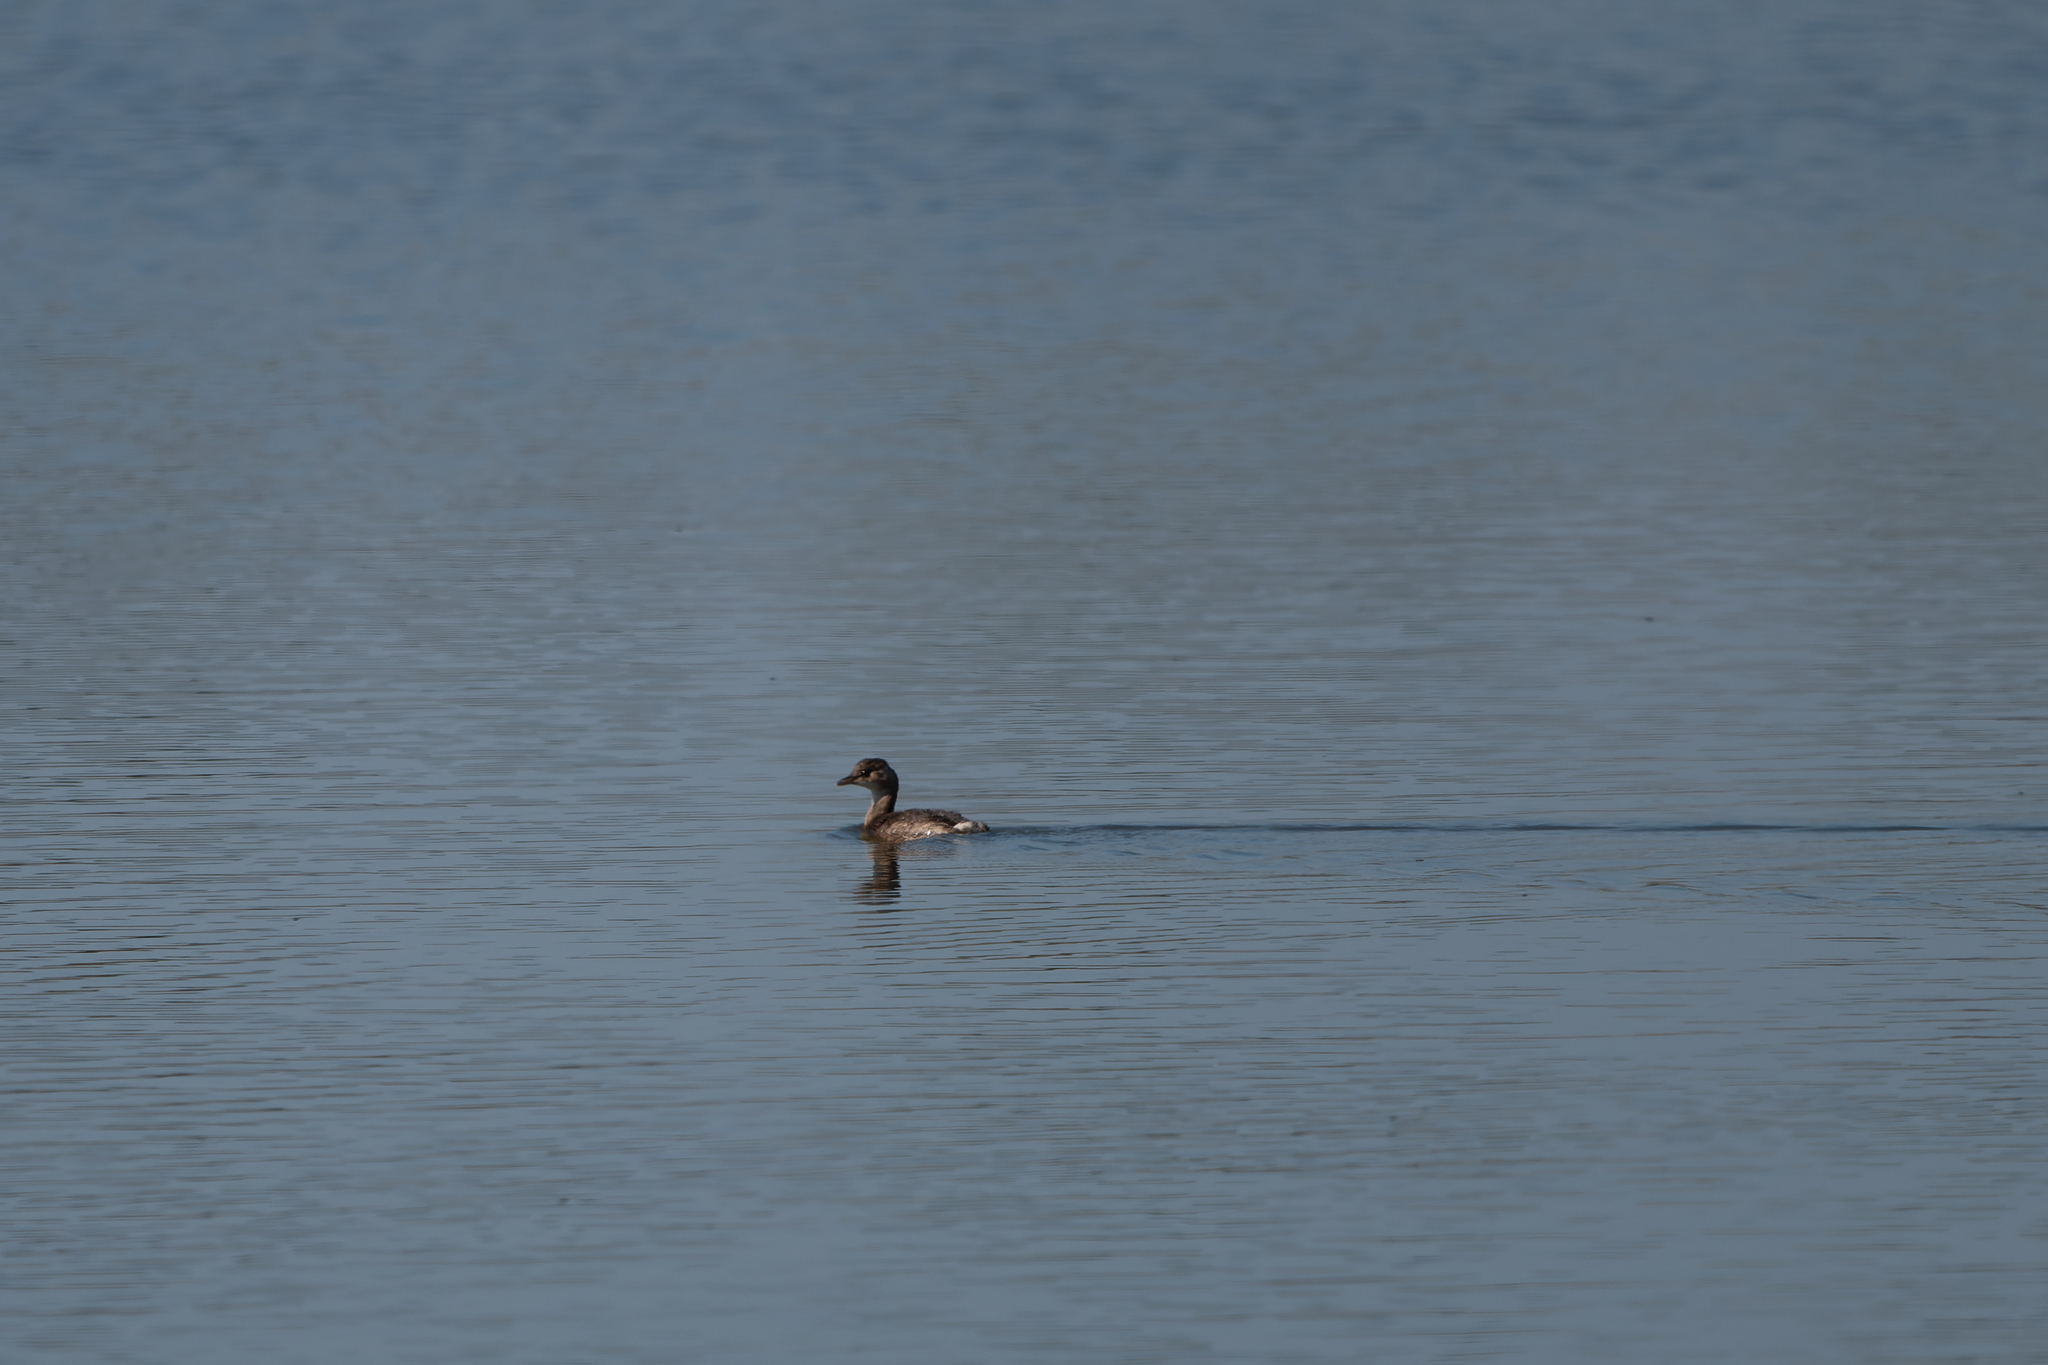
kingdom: Animalia
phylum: Chordata
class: Aves
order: Podicipediformes
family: Podicipedidae
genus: Tachybaptus
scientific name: Tachybaptus ruficollis
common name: Little grebe
